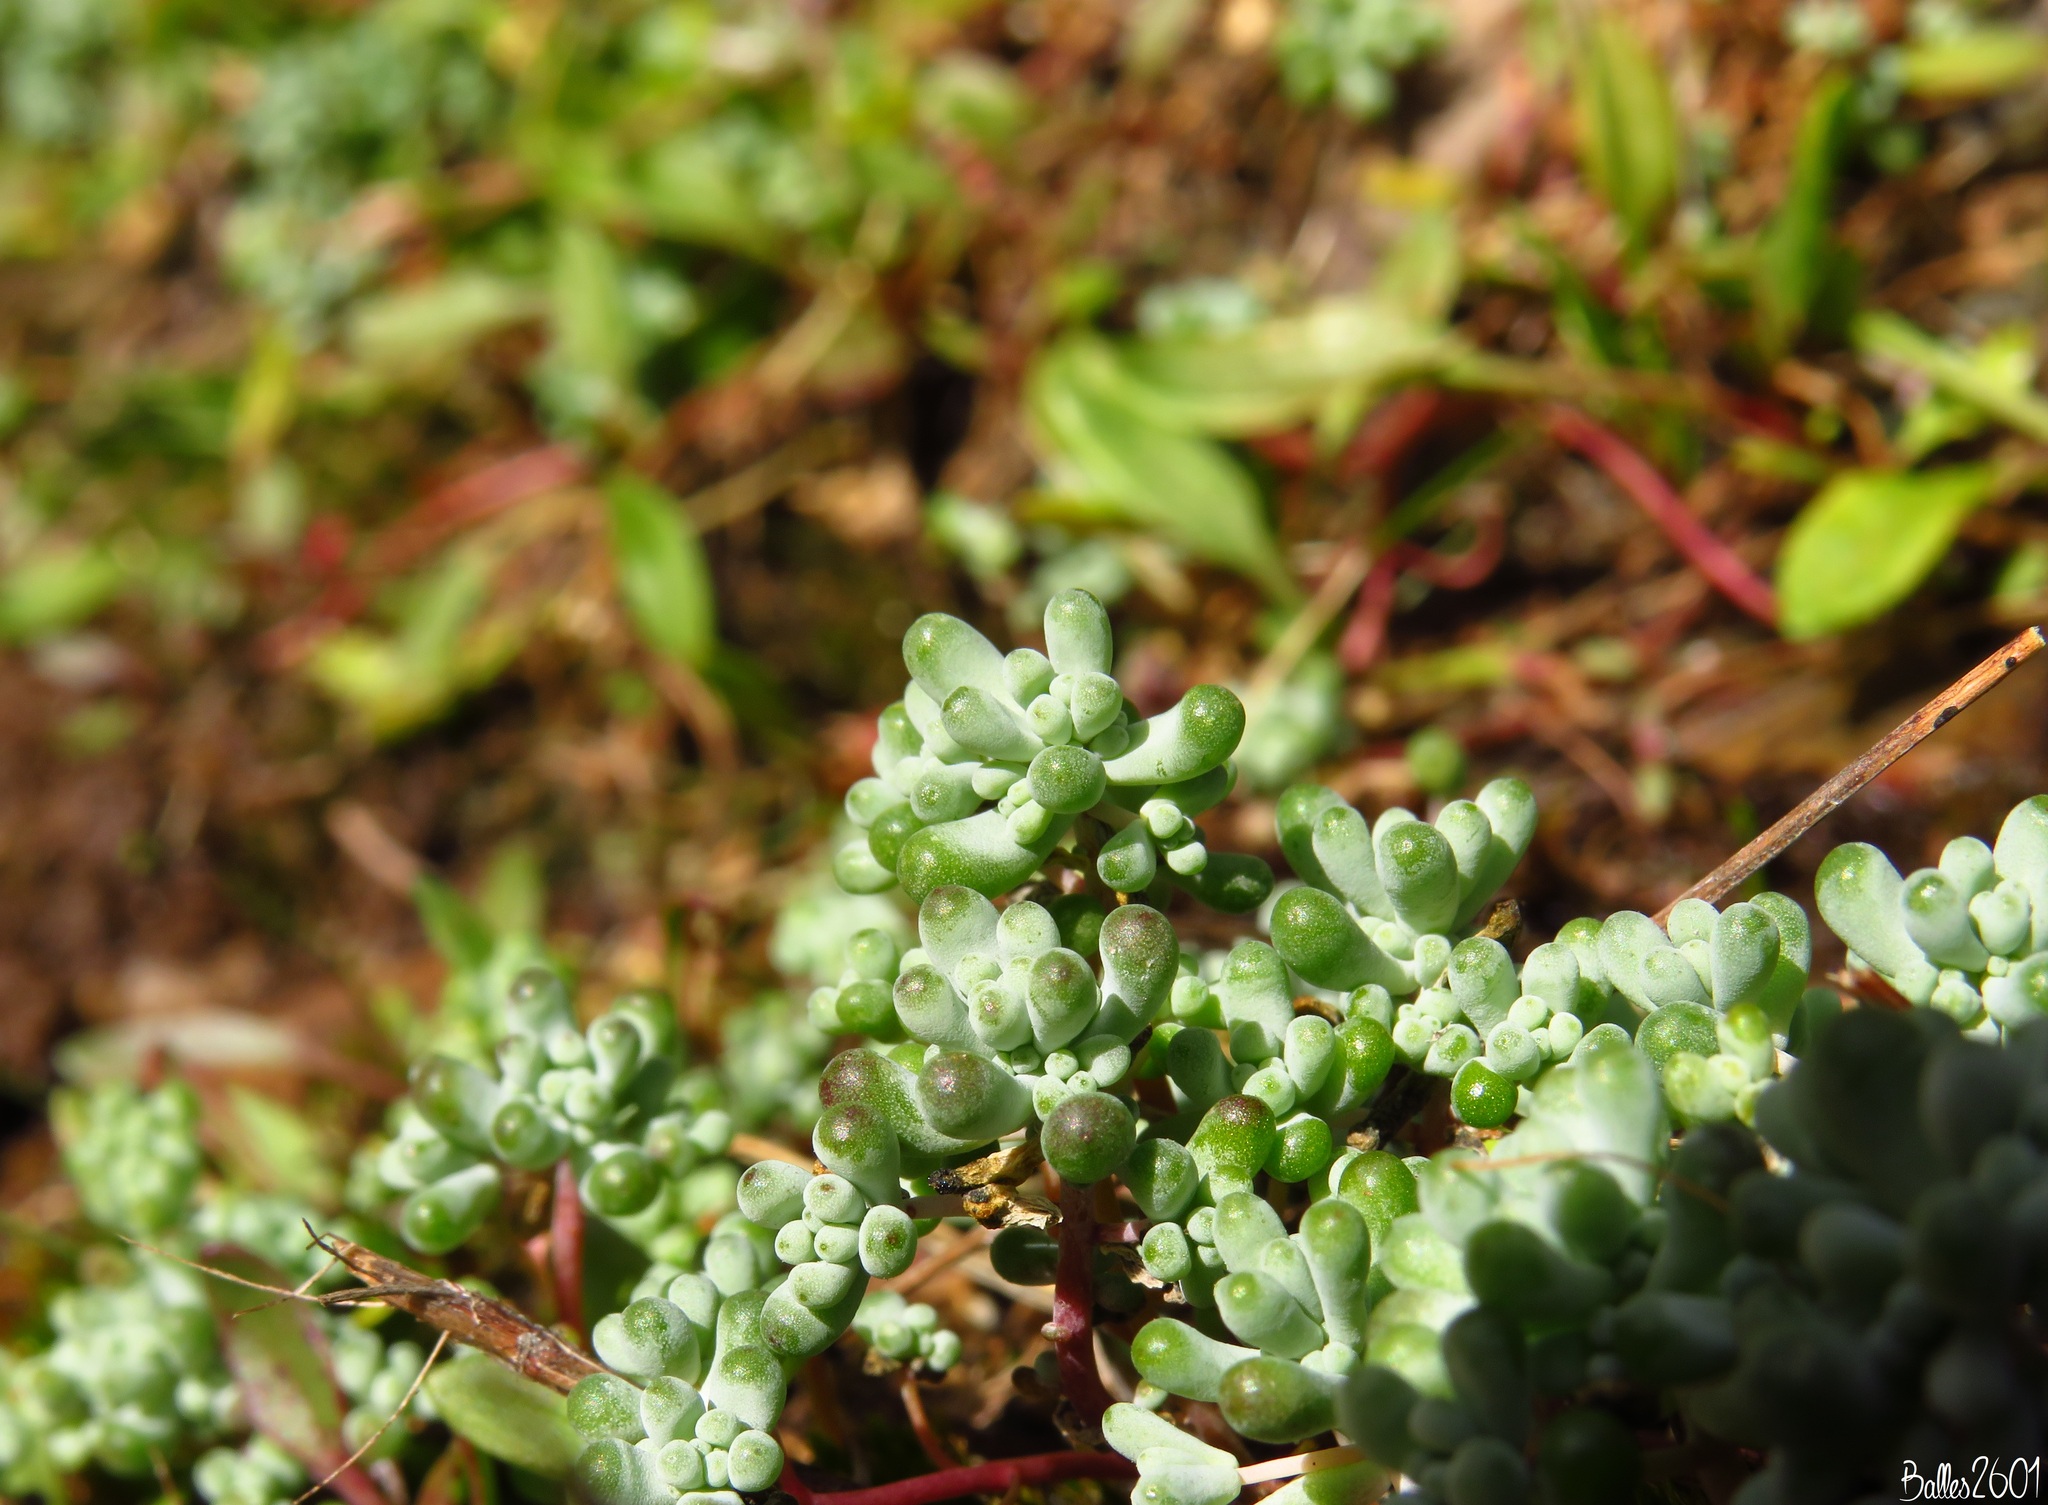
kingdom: Plantae
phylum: Tracheophyta
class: Magnoliopsida
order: Saxifragales
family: Crassulaceae
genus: Sedum
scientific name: Sedum pedicellatum
